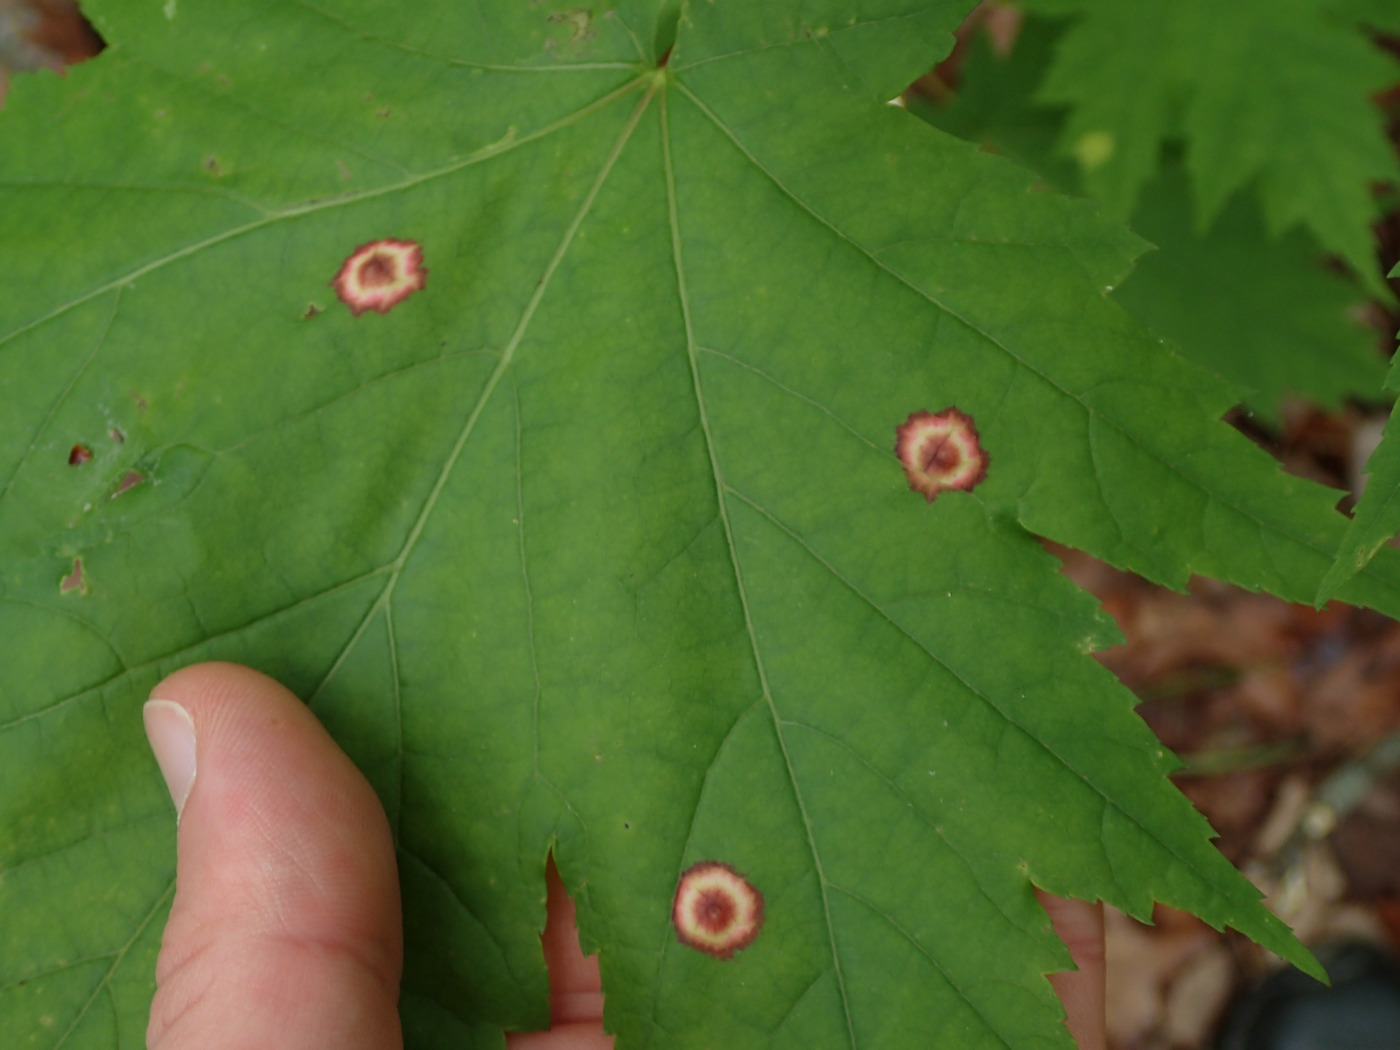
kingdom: Animalia
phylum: Arthropoda
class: Insecta
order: Diptera
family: Cecidomyiidae
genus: Acericecis
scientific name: Acericecis ocellaris
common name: Ocellate gall midge
